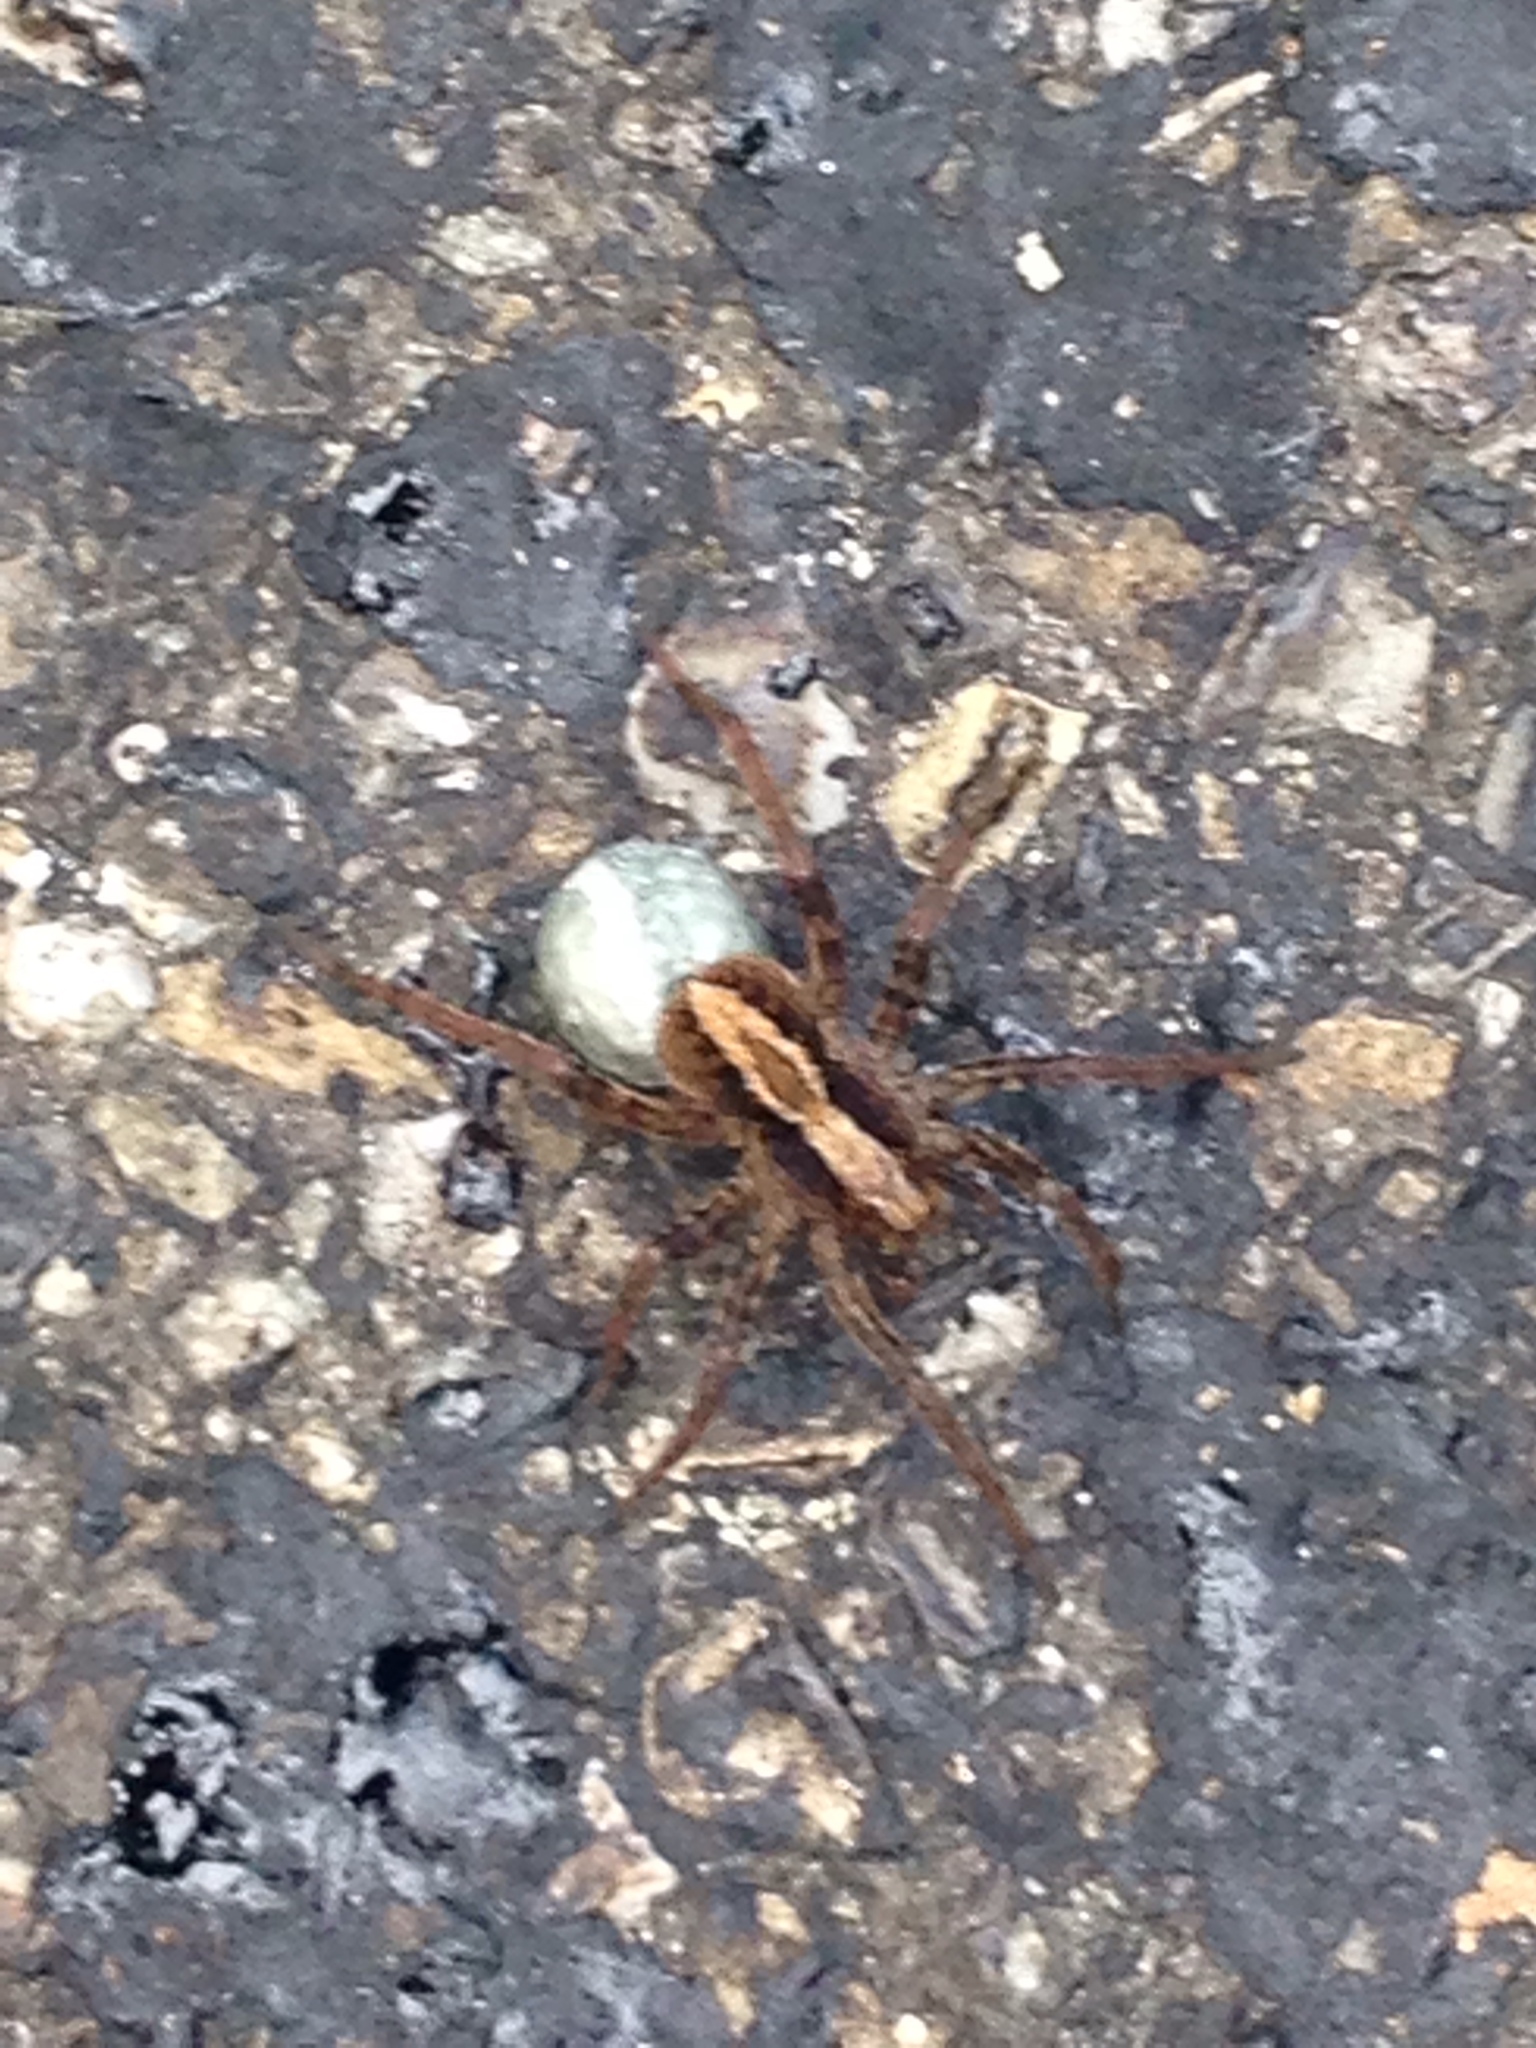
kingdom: Animalia
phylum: Arthropoda
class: Arachnida
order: Araneae
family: Lycosidae
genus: Alopecosa
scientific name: Alopecosa
